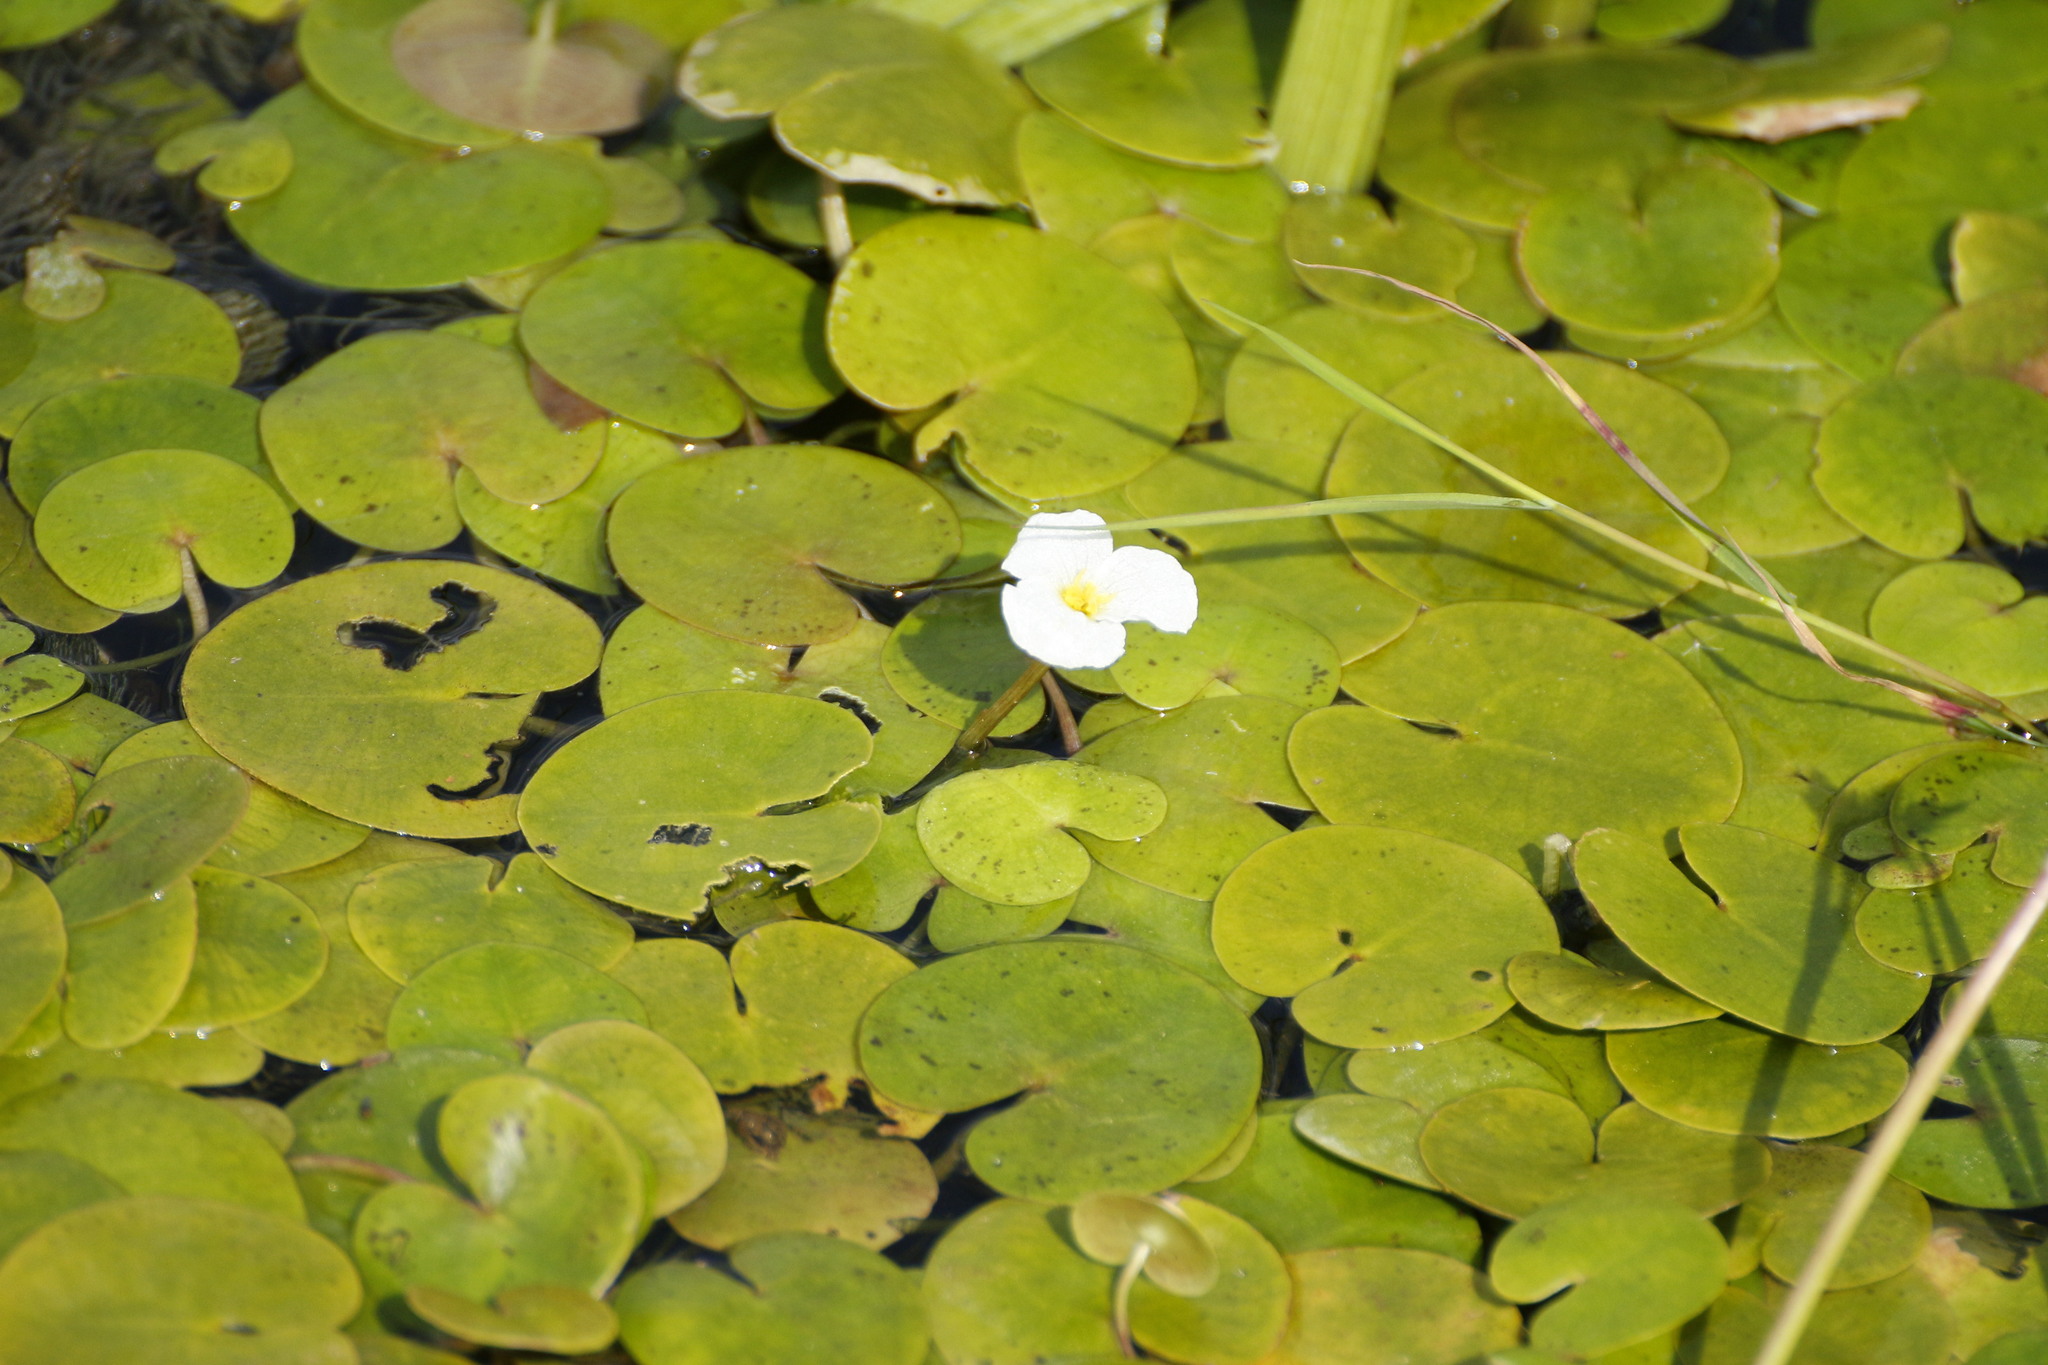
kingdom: Plantae
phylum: Tracheophyta
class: Liliopsida
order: Alismatales
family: Hydrocharitaceae
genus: Hydrocharis
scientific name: Hydrocharis morsus-ranae
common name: Frogbit
